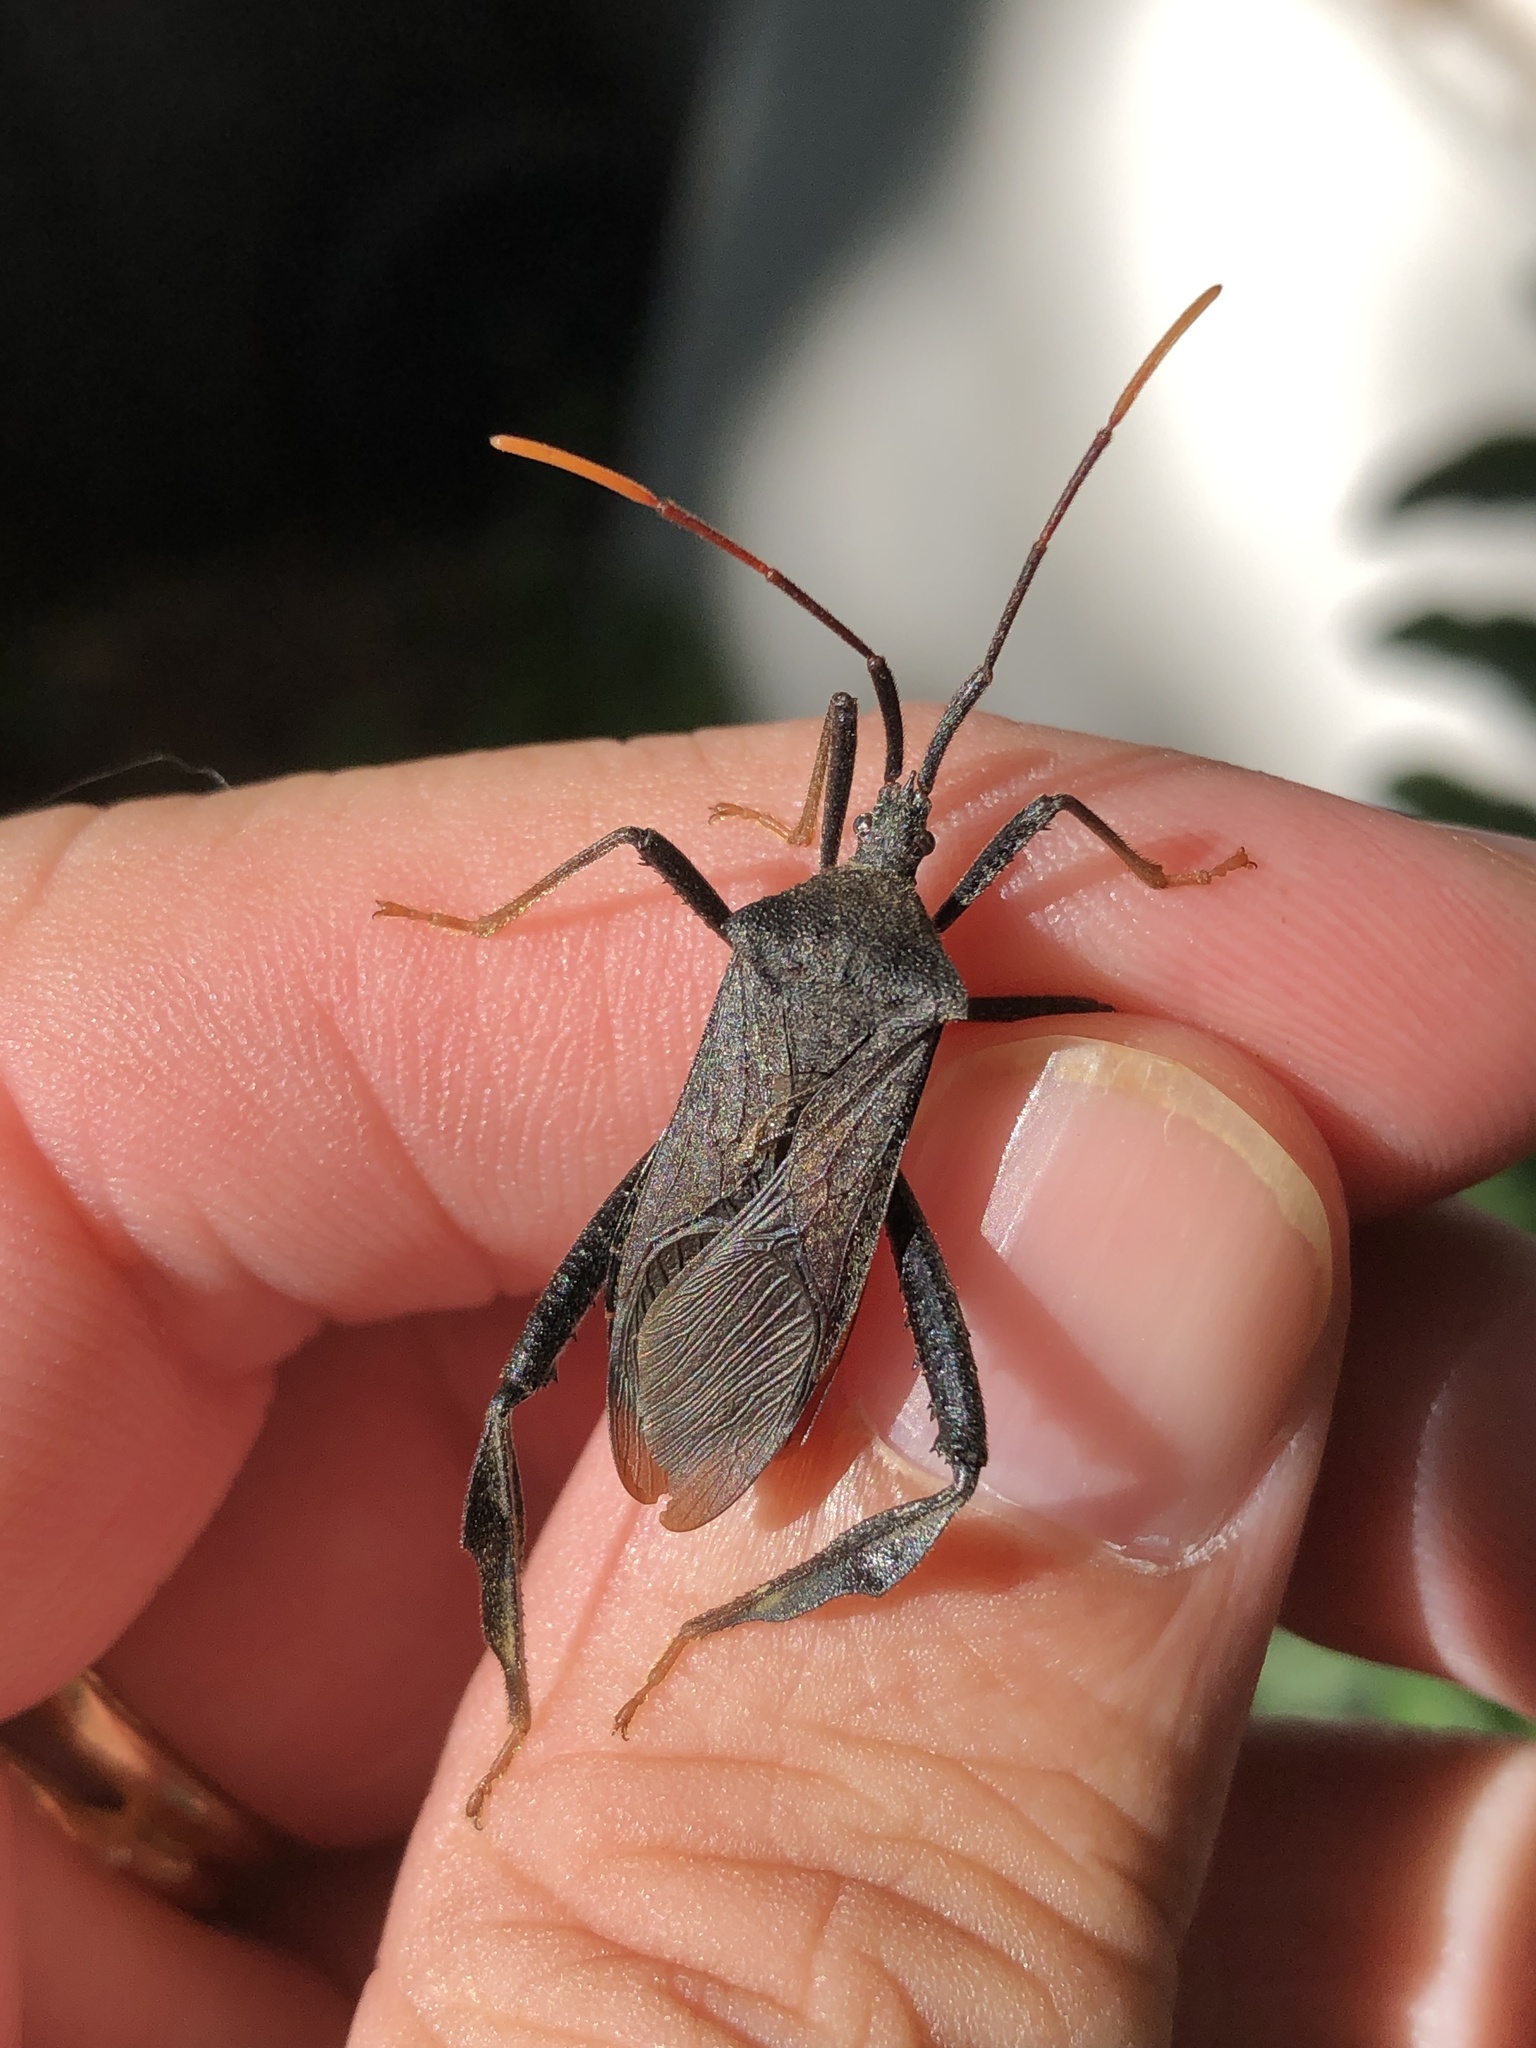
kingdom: Animalia
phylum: Arthropoda
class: Insecta
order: Hemiptera
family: Coreidae
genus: Acanthocephala
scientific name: Acanthocephala terminalis
